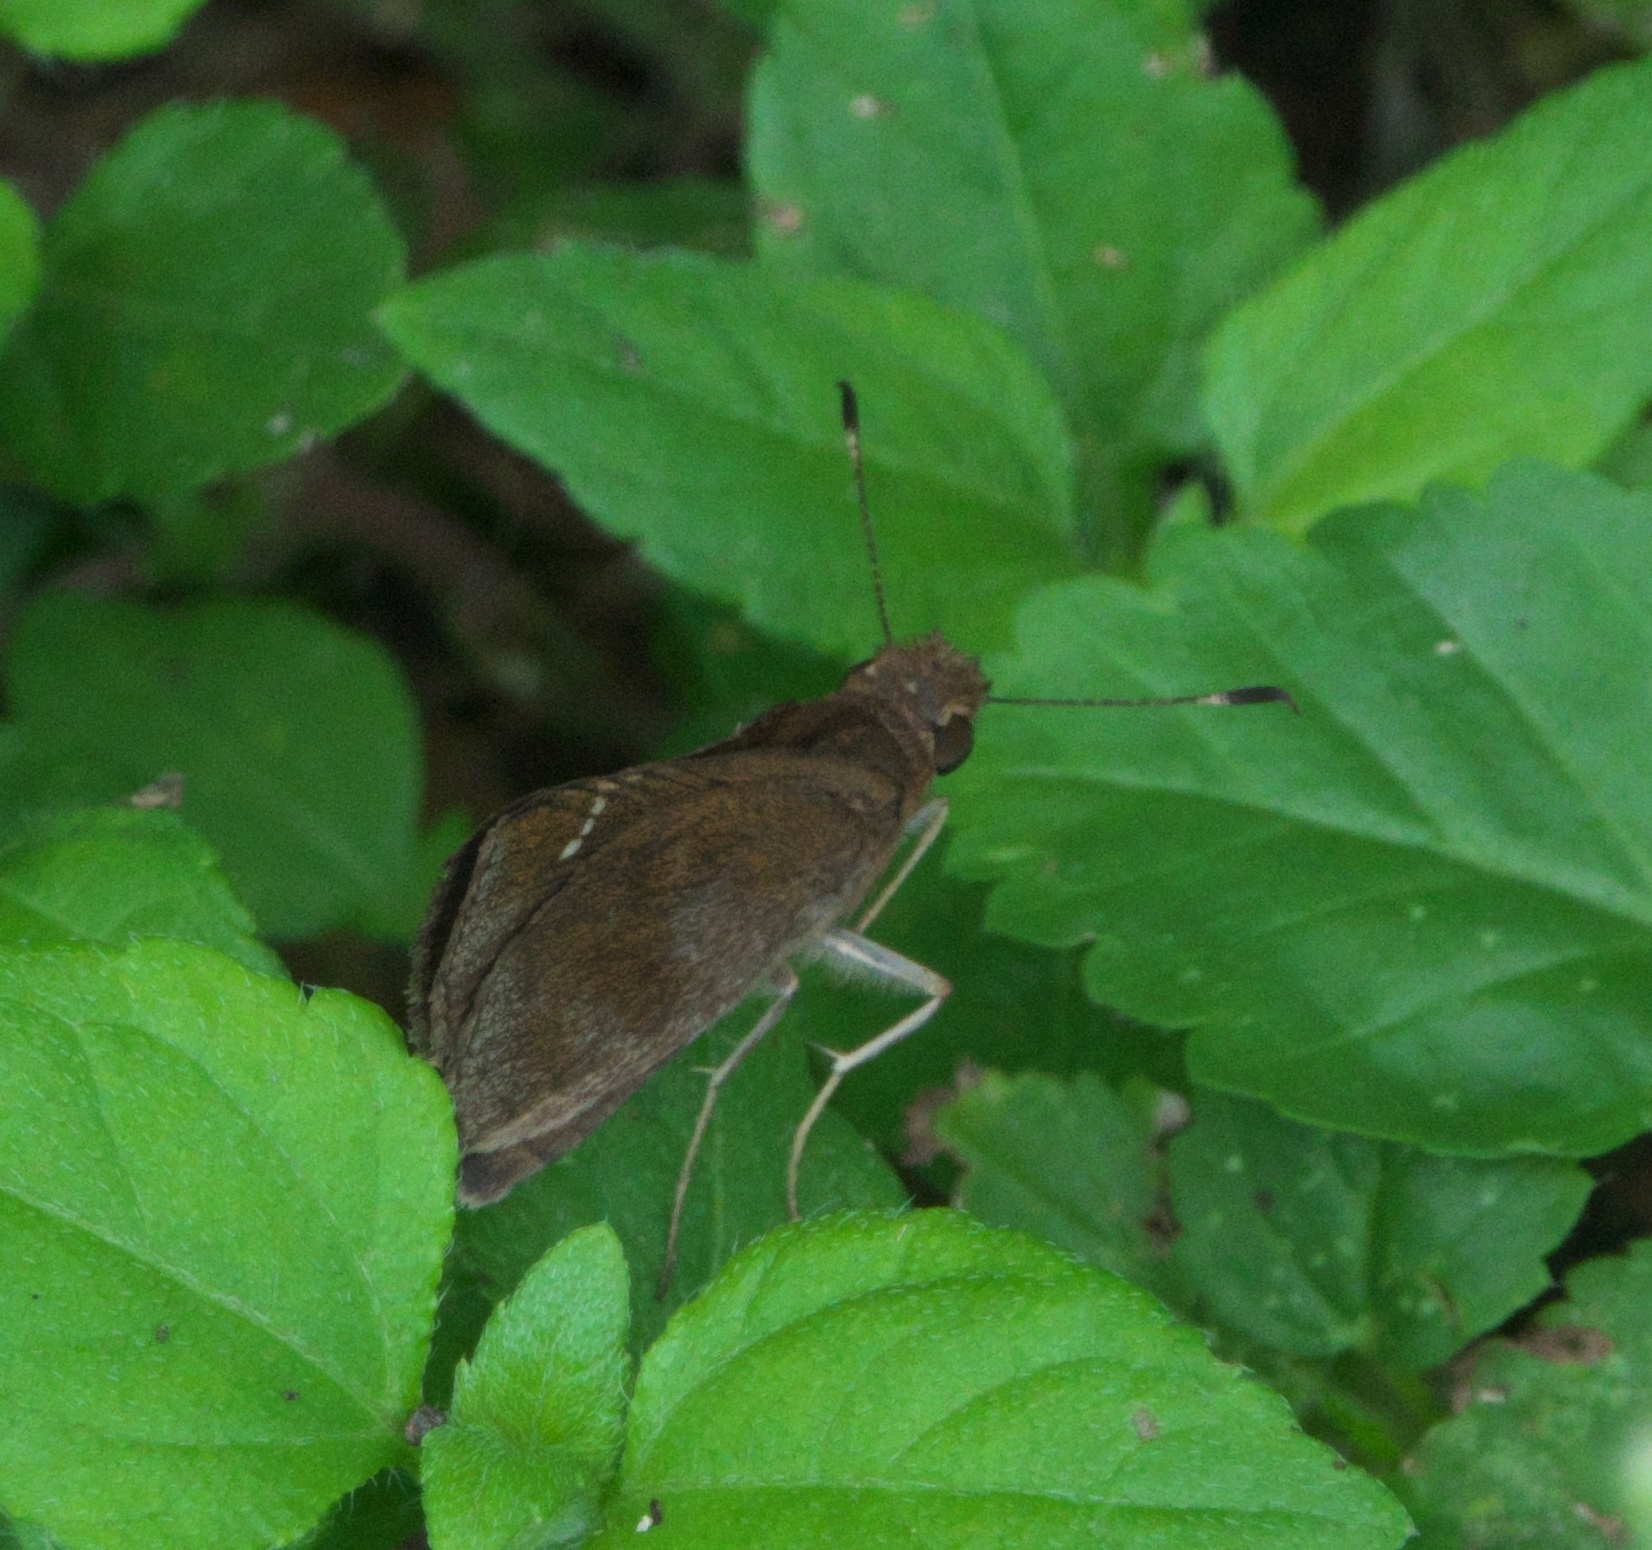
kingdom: Animalia
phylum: Arthropoda
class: Insecta
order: Lepidoptera
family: Hesperiidae
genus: Lerema
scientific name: Lerema accius
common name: Clouded skipper
